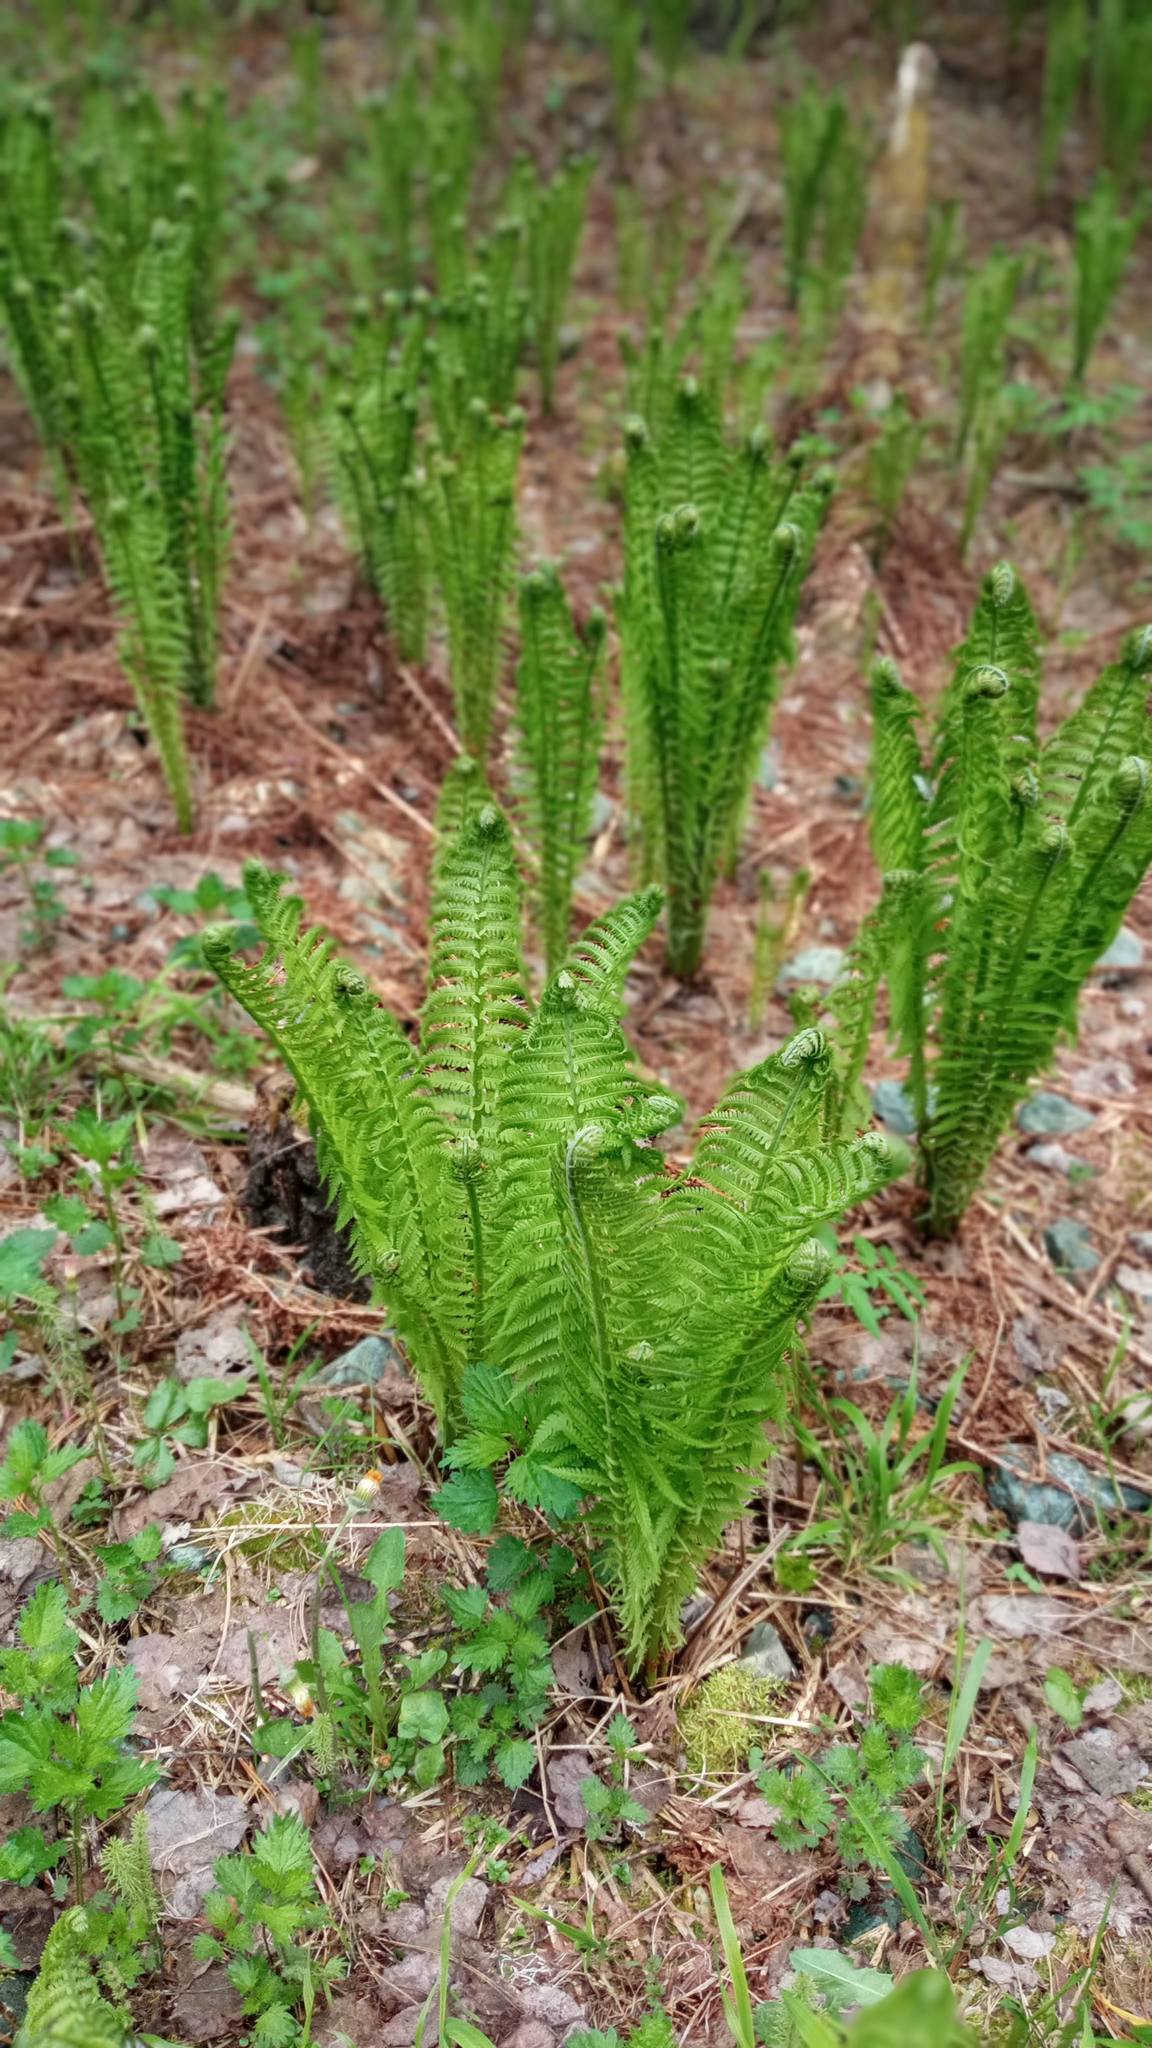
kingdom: Plantae
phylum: Tracheophyta
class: Polypodiopsida
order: Polypodiales
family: Onocleaceae
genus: Matteuccia
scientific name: Matteuccia struthiopteris
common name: Ostrich fern
